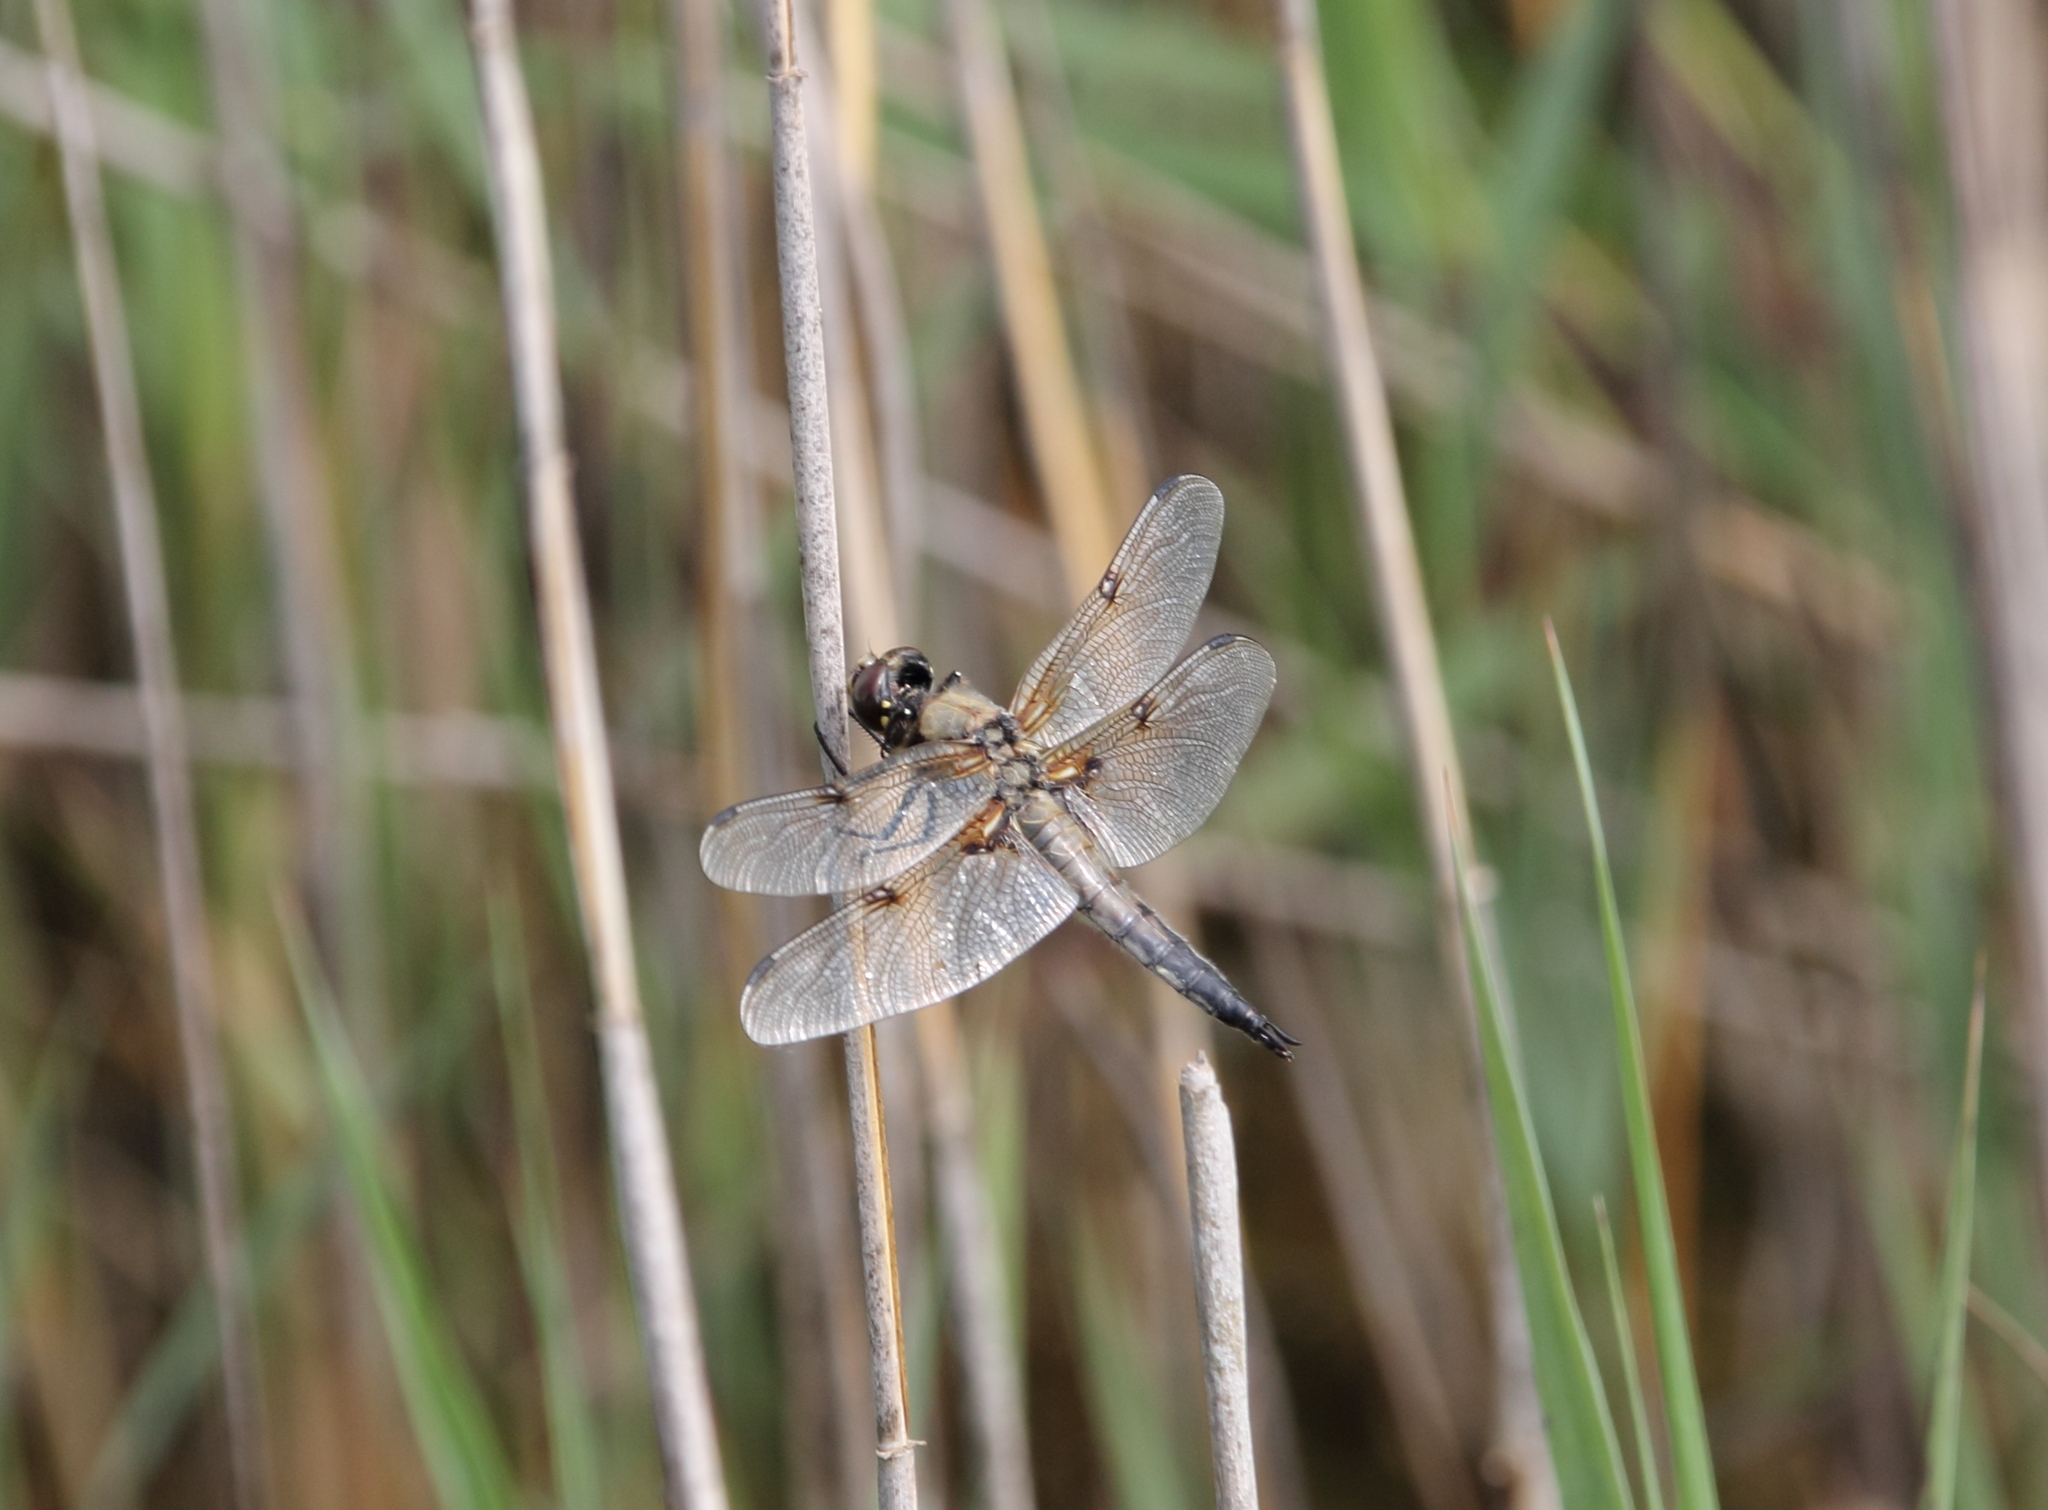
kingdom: Animalia
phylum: Arthropoda
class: Insecta
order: Odonata
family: Libellulidae
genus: Libellula
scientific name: Libellula quadrimaculata
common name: Four-spotted chaser
